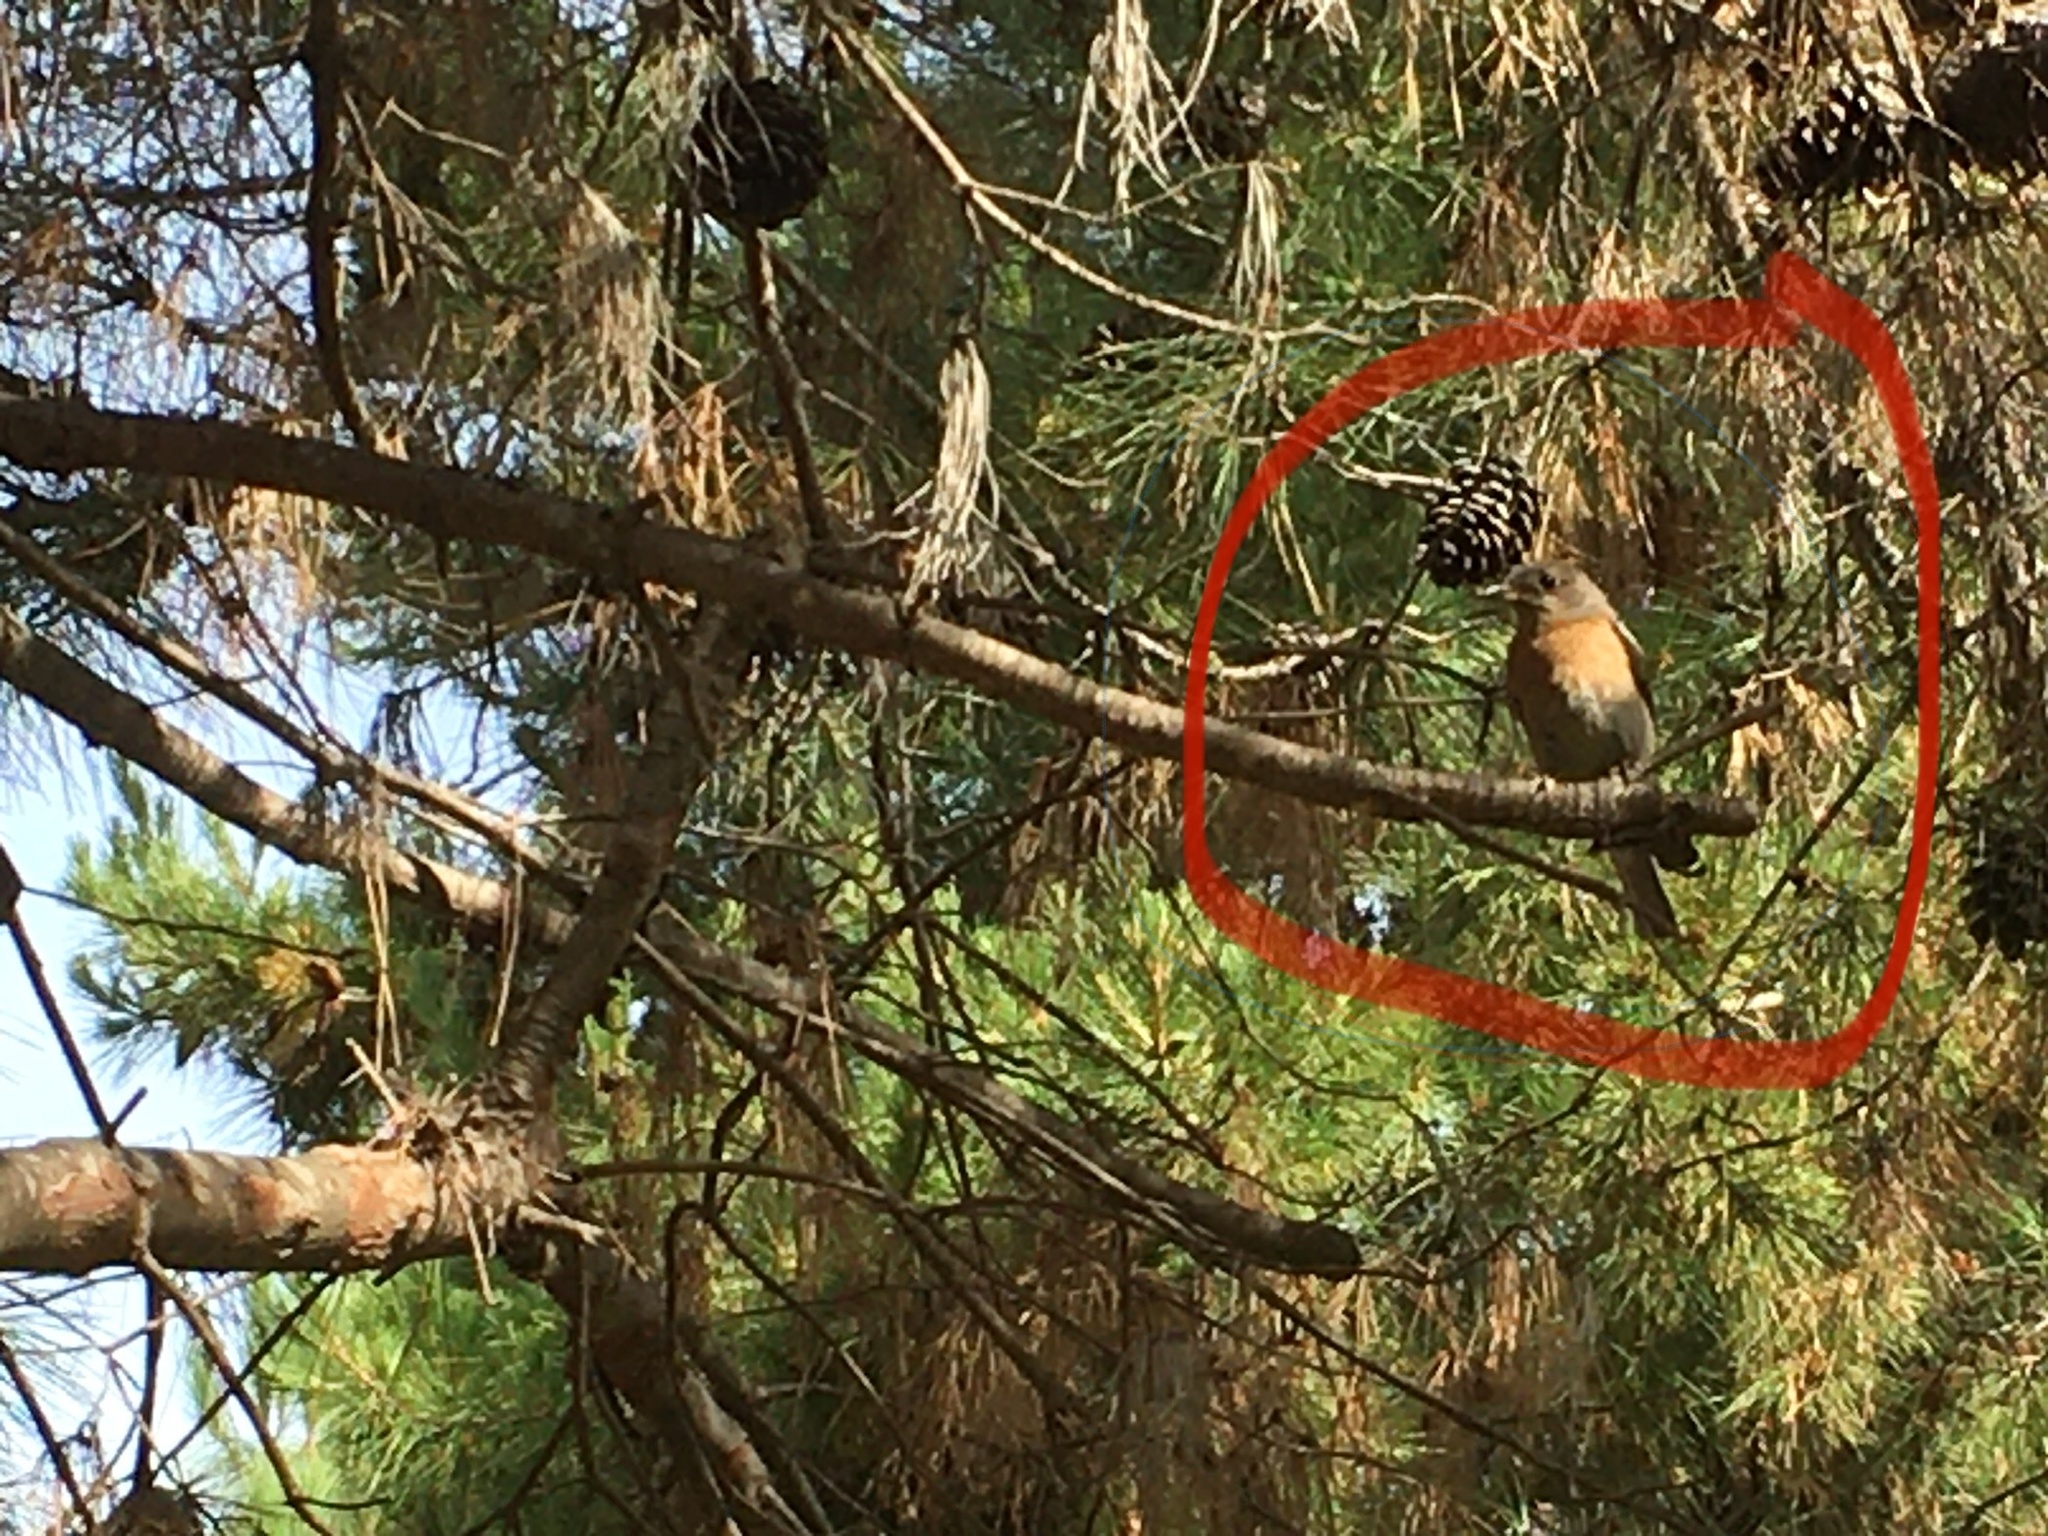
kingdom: Animalia
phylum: Chordata
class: Aves
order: Passeriformes
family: Turdidae
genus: Sialia
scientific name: Sialia mexicana
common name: Western bluebird
